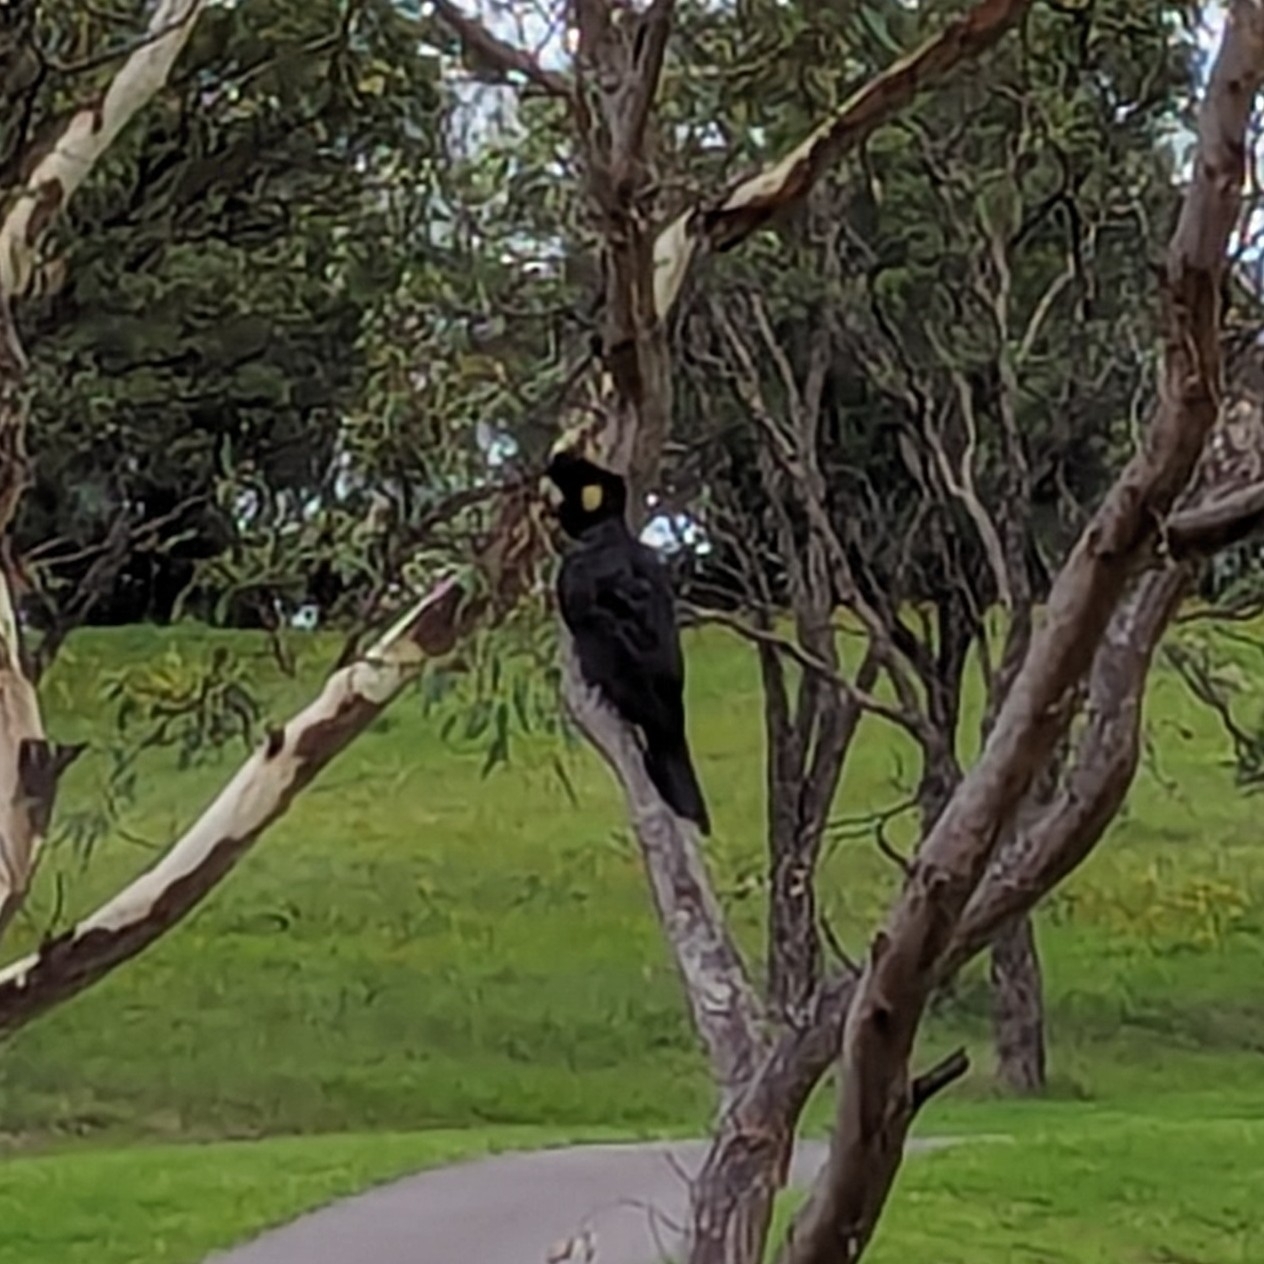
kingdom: Animalia
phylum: Chordata
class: Aves
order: Psittaciformes
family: Cacatuidae
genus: Zanda
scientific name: Zanda funerea
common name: Yellow-tailed black-cockatoo
